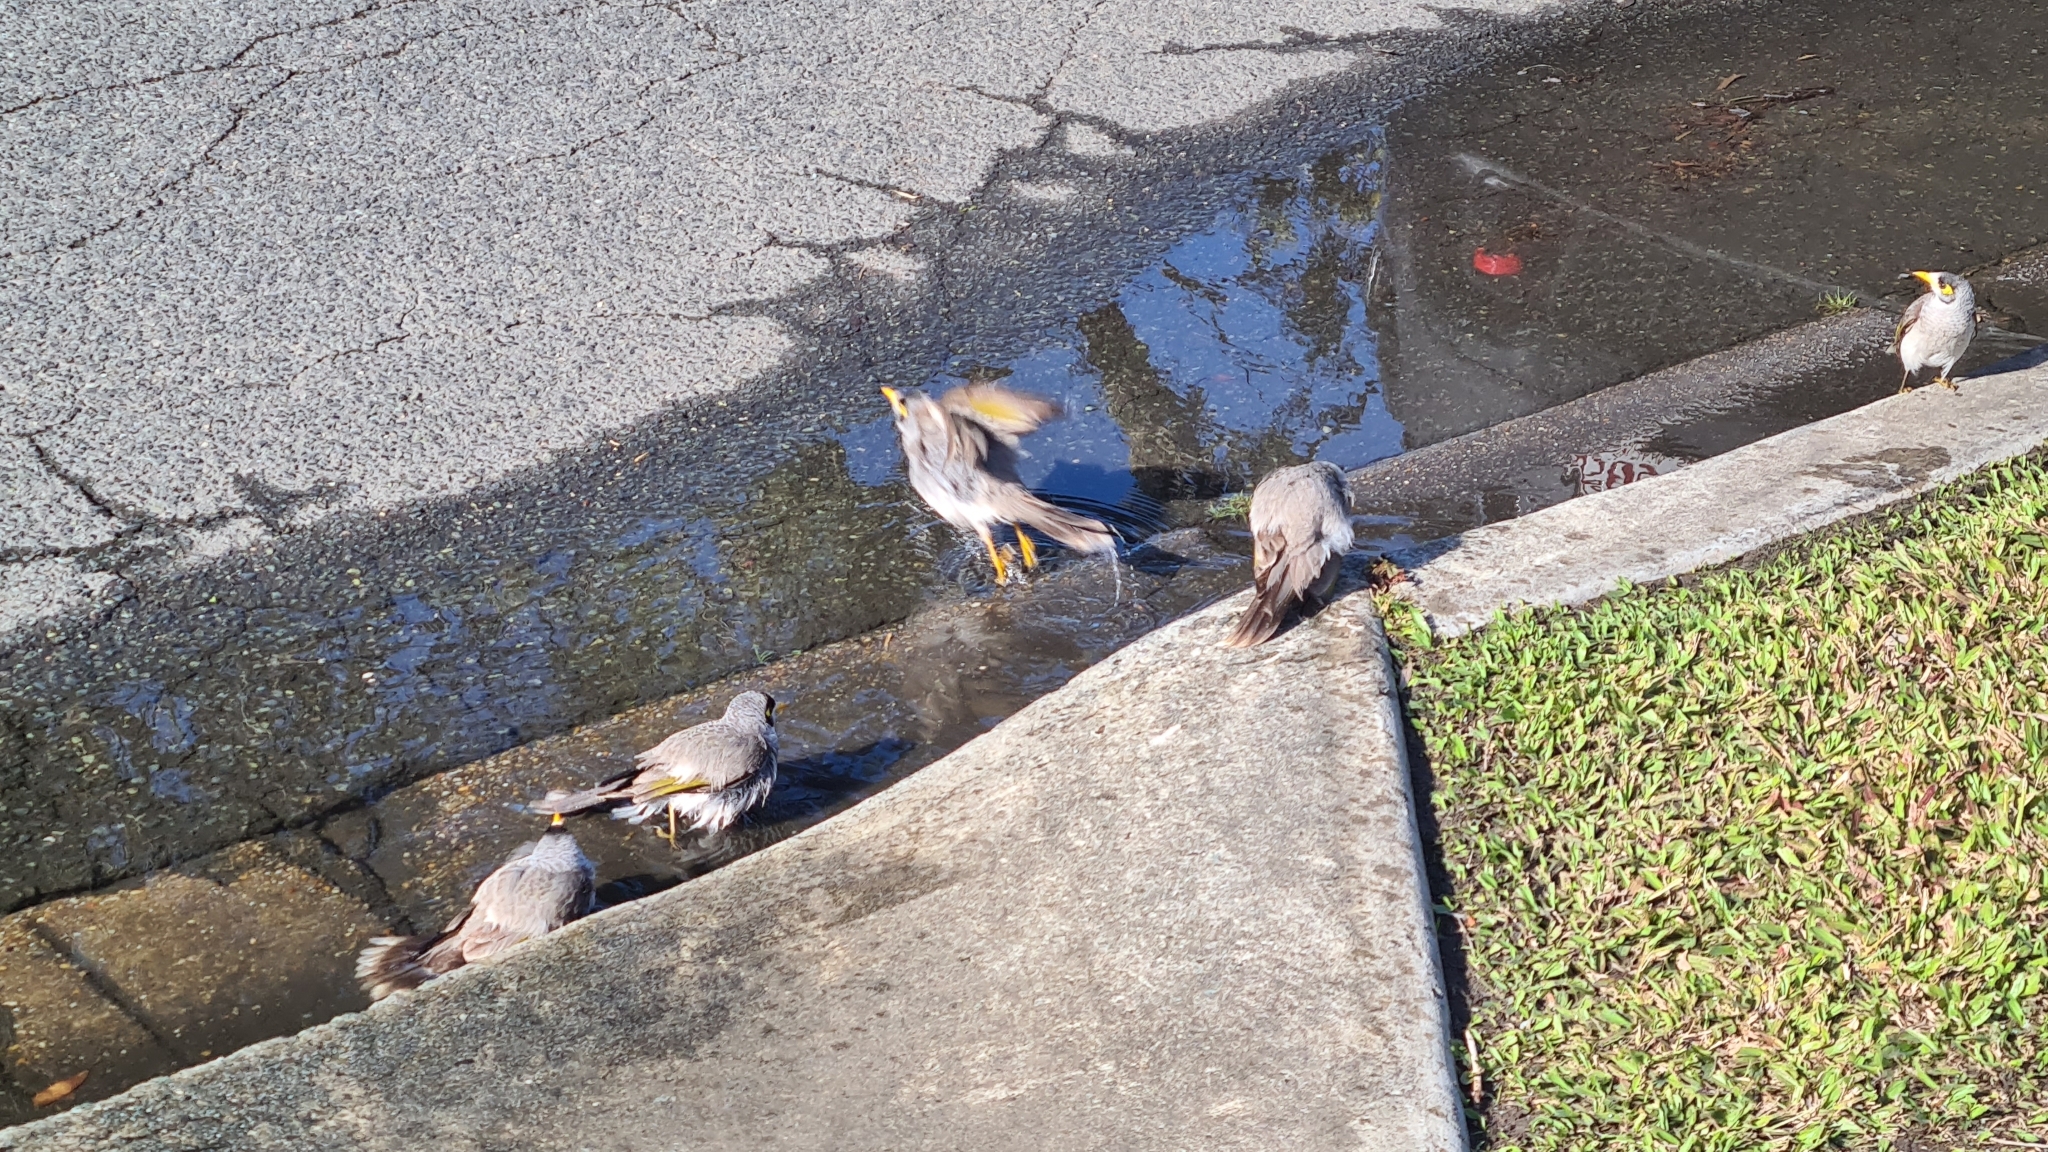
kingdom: Animalia
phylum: Chordata
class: Aves
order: Passeriformes
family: Meliphagidae
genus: Manorina
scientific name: Manorina melanocephala
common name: Noisy miner
